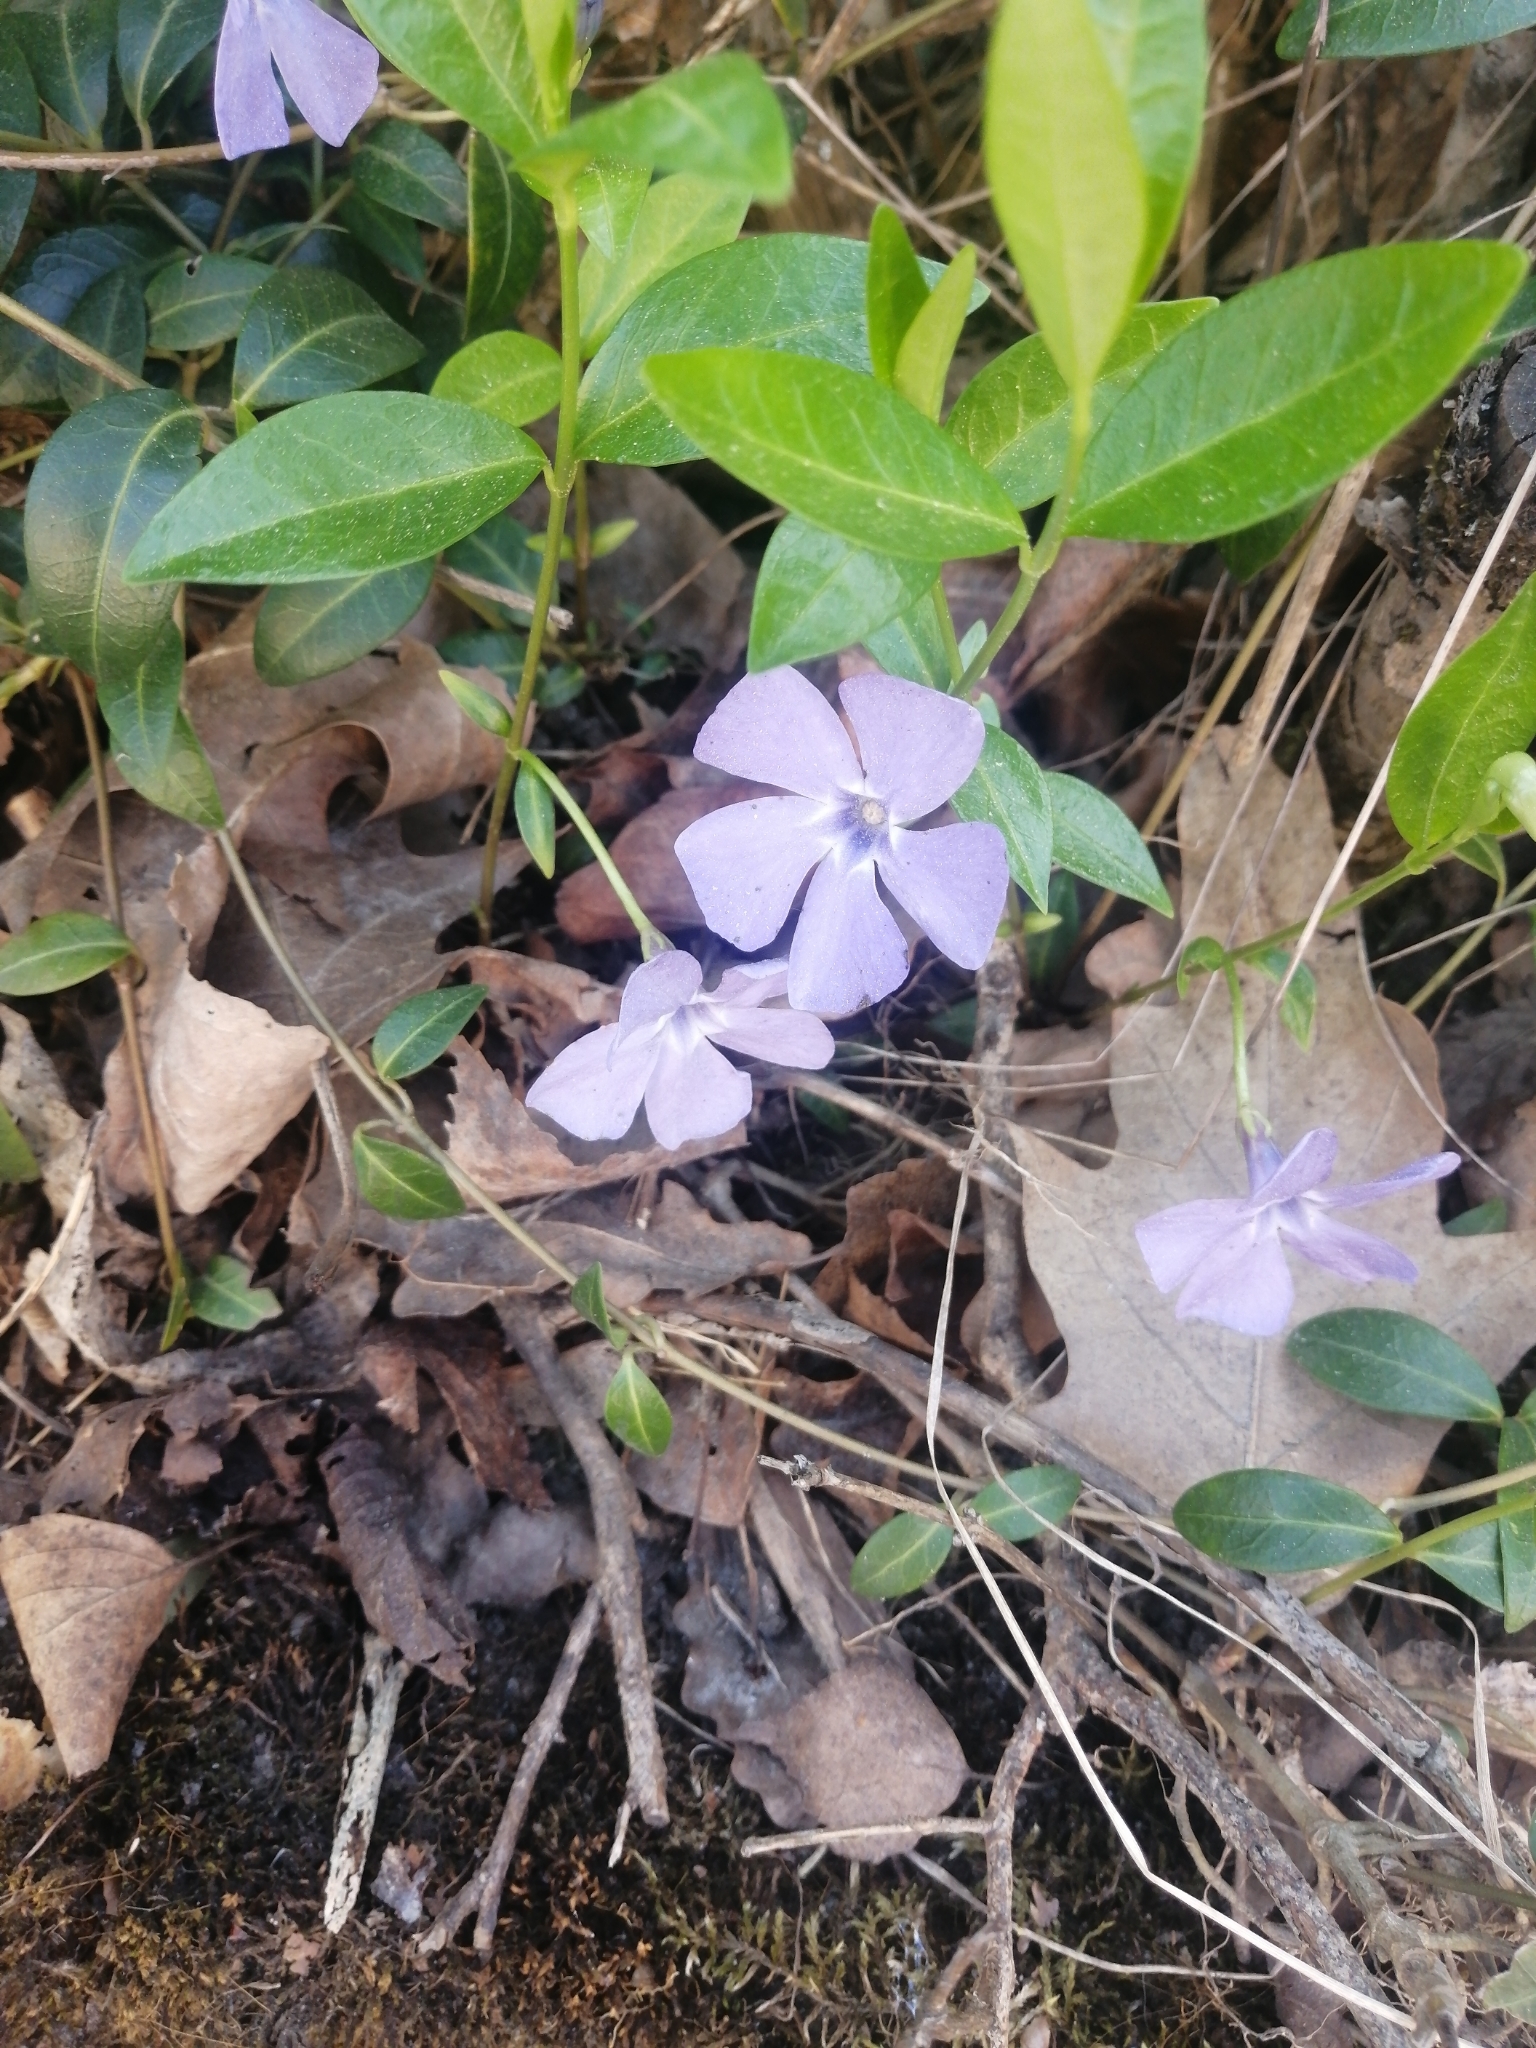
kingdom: Plantae
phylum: Tracheophyta
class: Magnoliopsida
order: Gentianales
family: Apocynaceae
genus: Vinca
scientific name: Vinca minor
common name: Lesser periwinkle
